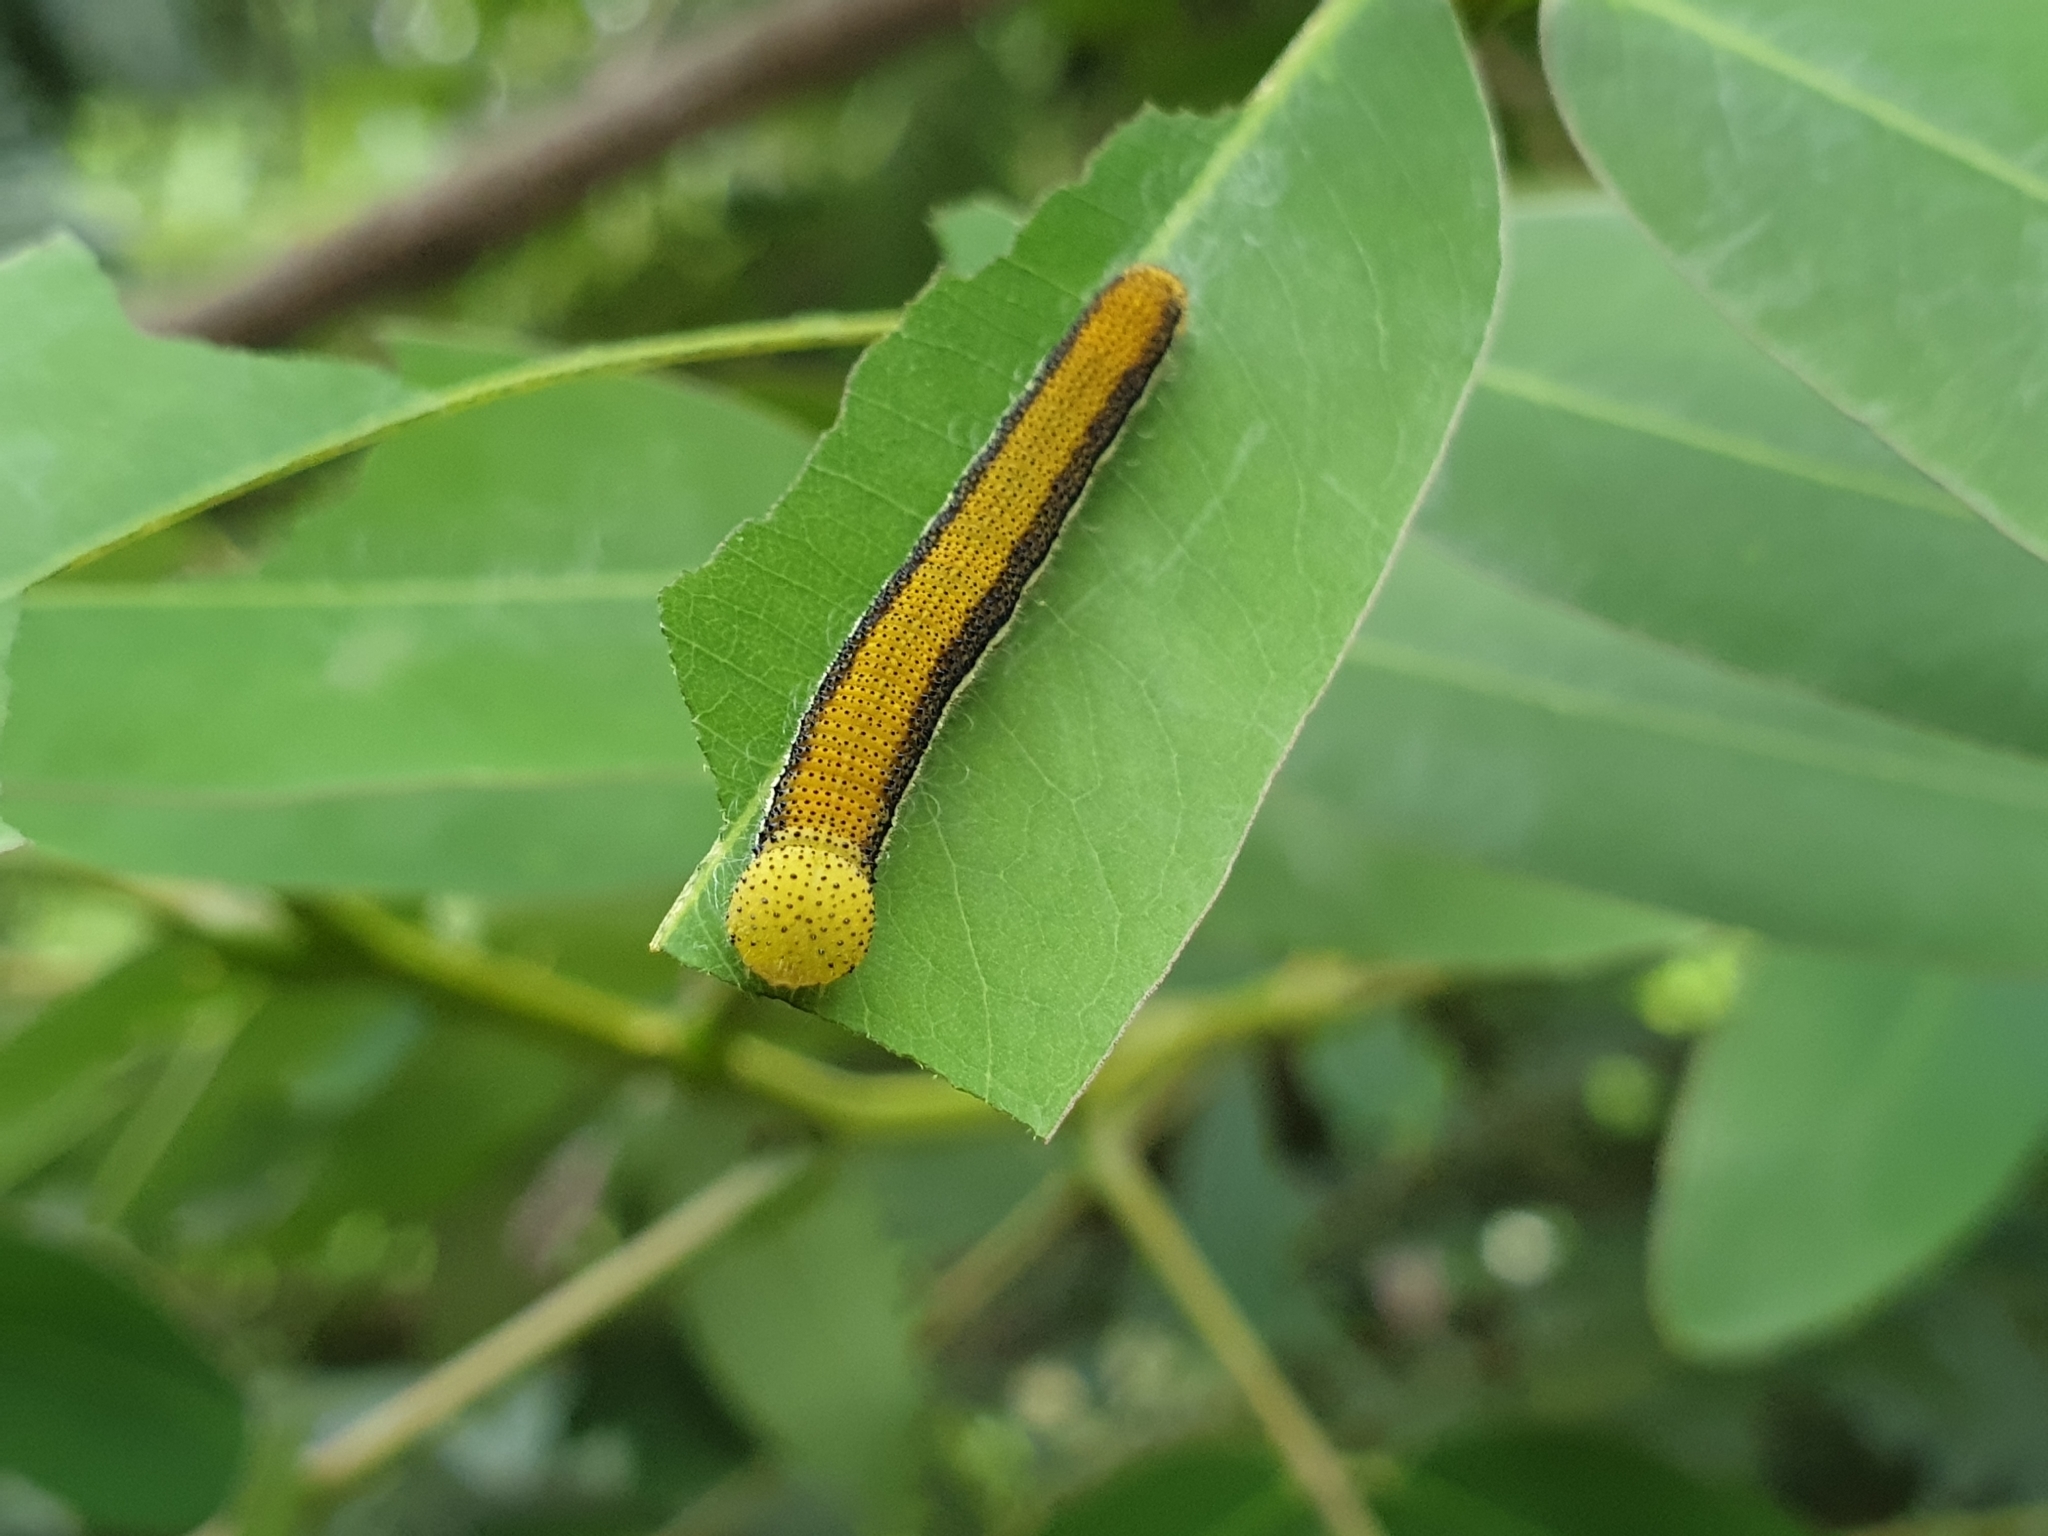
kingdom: Animalia
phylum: Arthropoda
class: Insecta
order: Lepidoptera
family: Pieridae
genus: Catopsilia
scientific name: Catopsilia pomona
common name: Common emigrant
